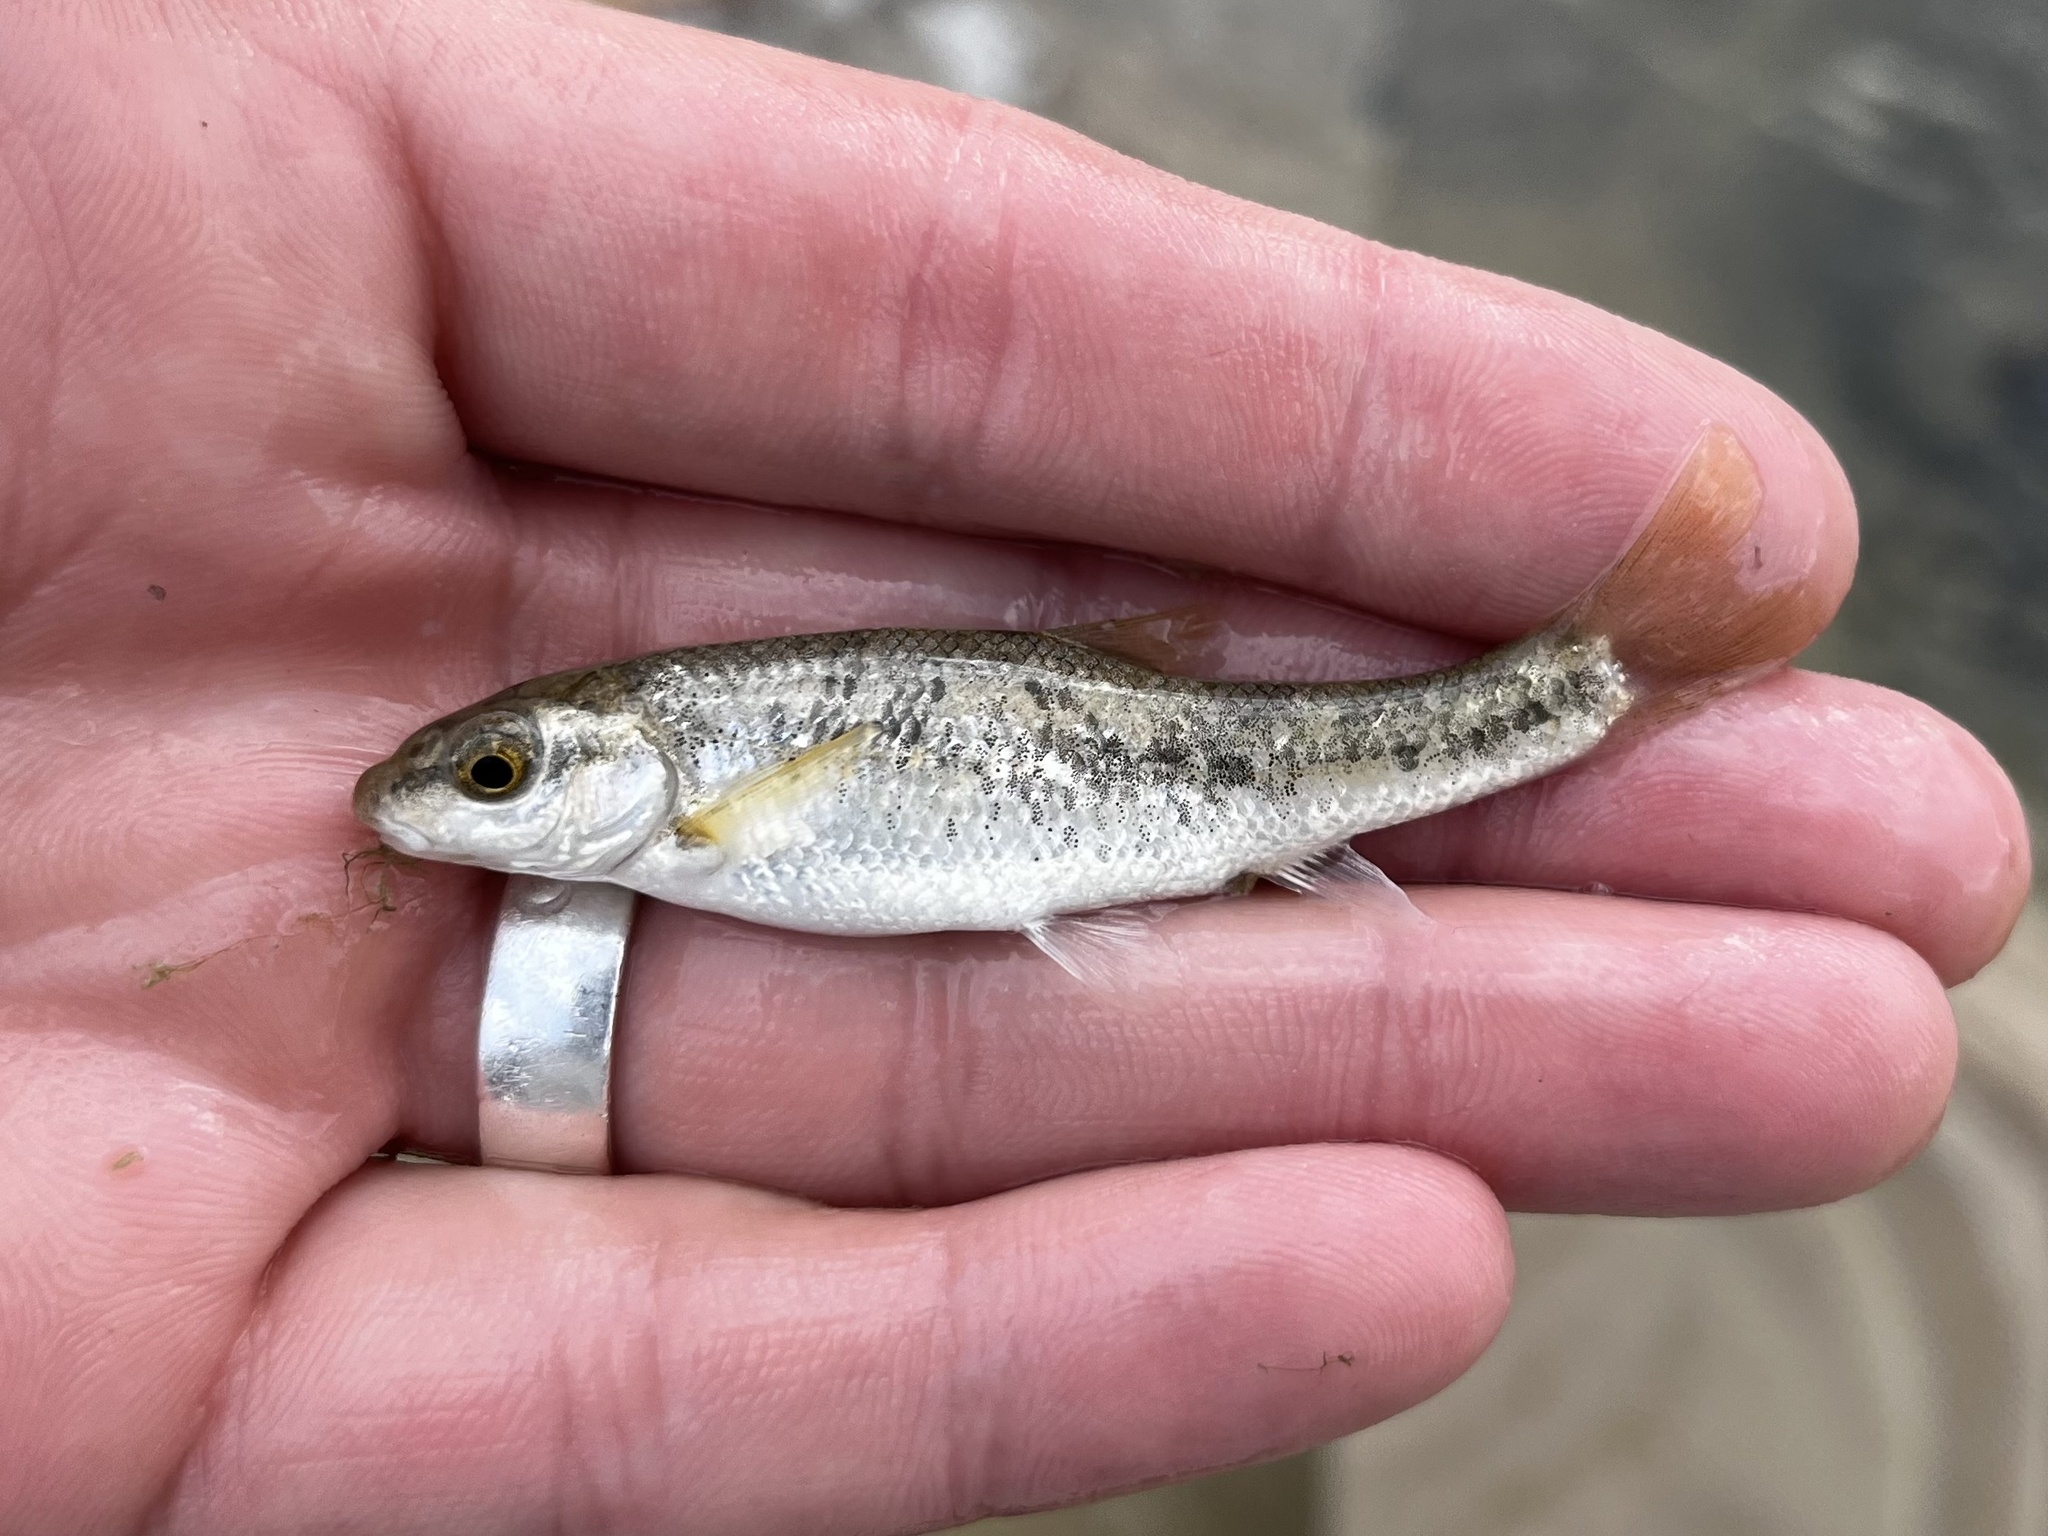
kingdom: Animalia
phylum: Chordata
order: Cypriniformes
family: Cyprinidae
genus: Campostoma
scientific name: Campostoma anomalum
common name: Central stoneroller
